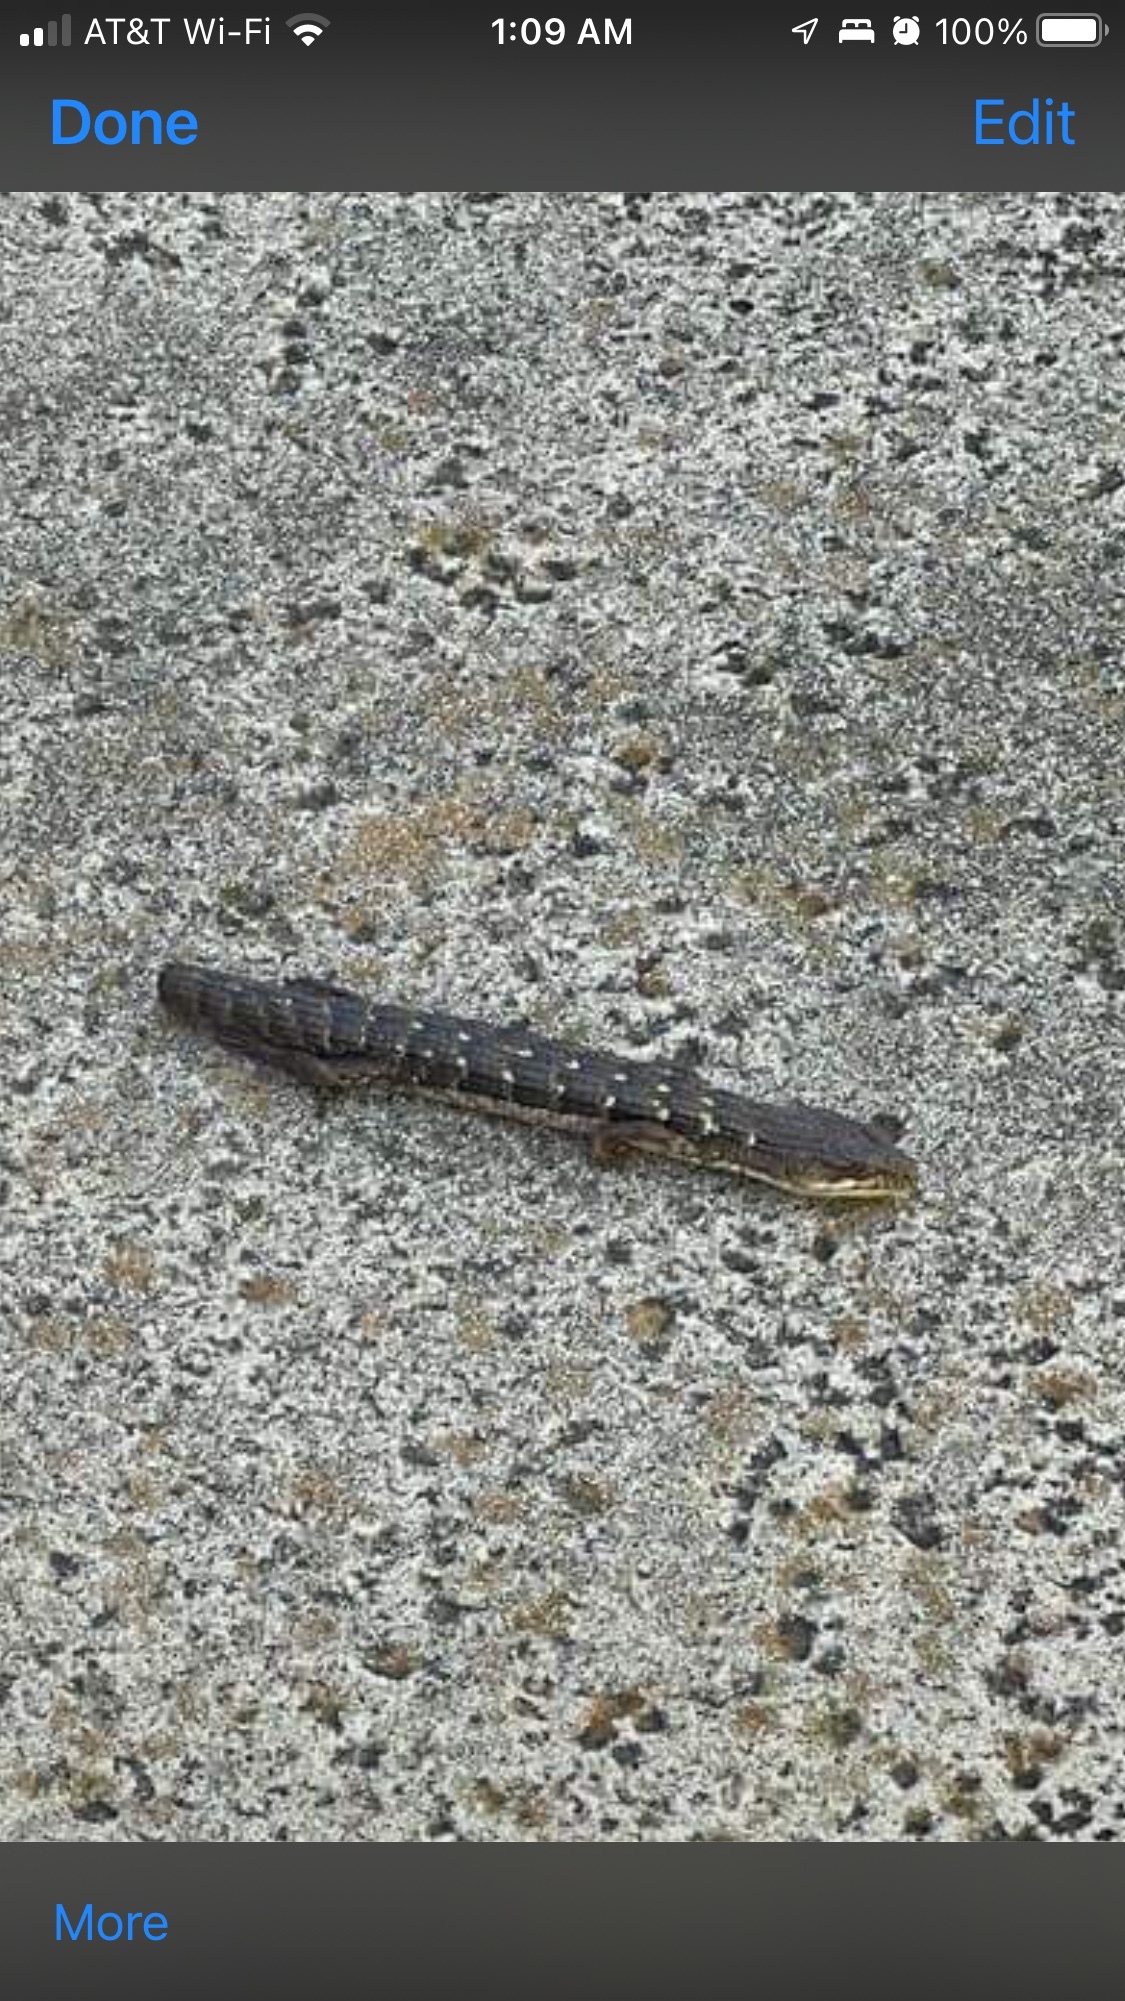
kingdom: Animalia
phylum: Chordata
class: Squamata
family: Anguidae
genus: Elgaria
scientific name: Elgaria multicarinata
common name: Southern alligator lizard
